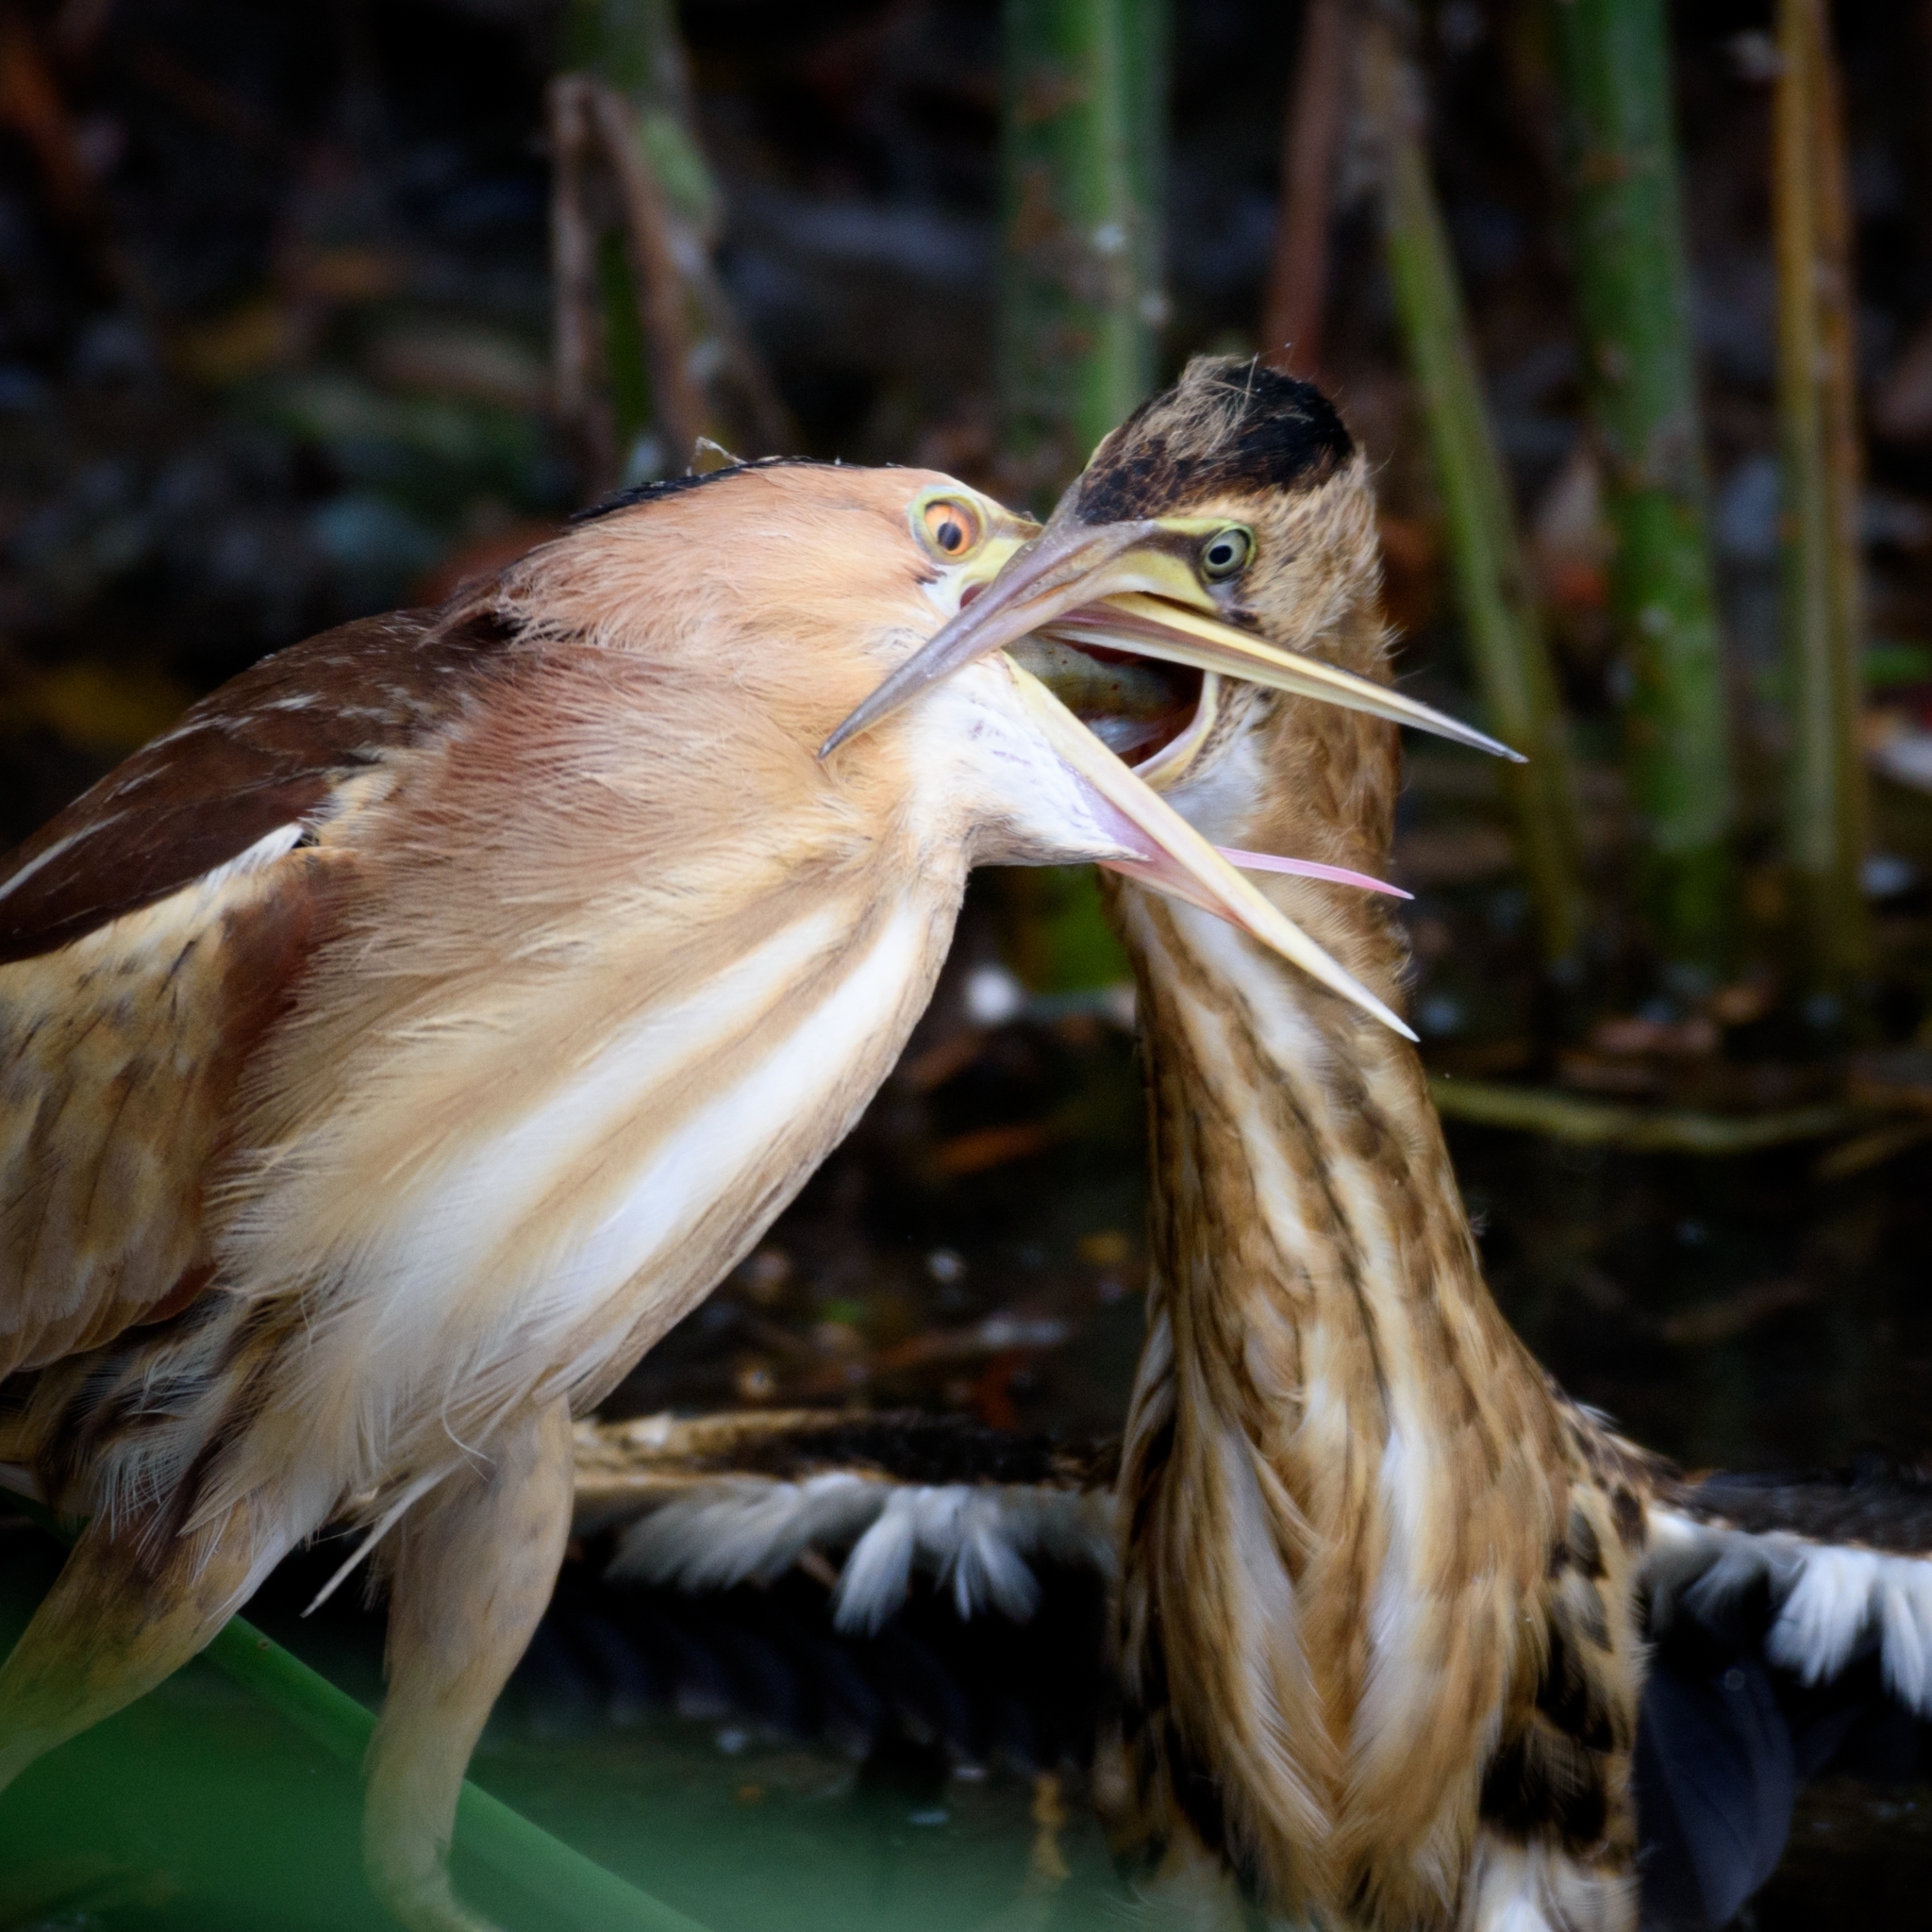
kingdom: Animalia
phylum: Chordata
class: Aves
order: Pelecaniformes
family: Ardeidae
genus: Ixobrychus
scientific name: Ixobrychus minutus
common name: Little bittern
